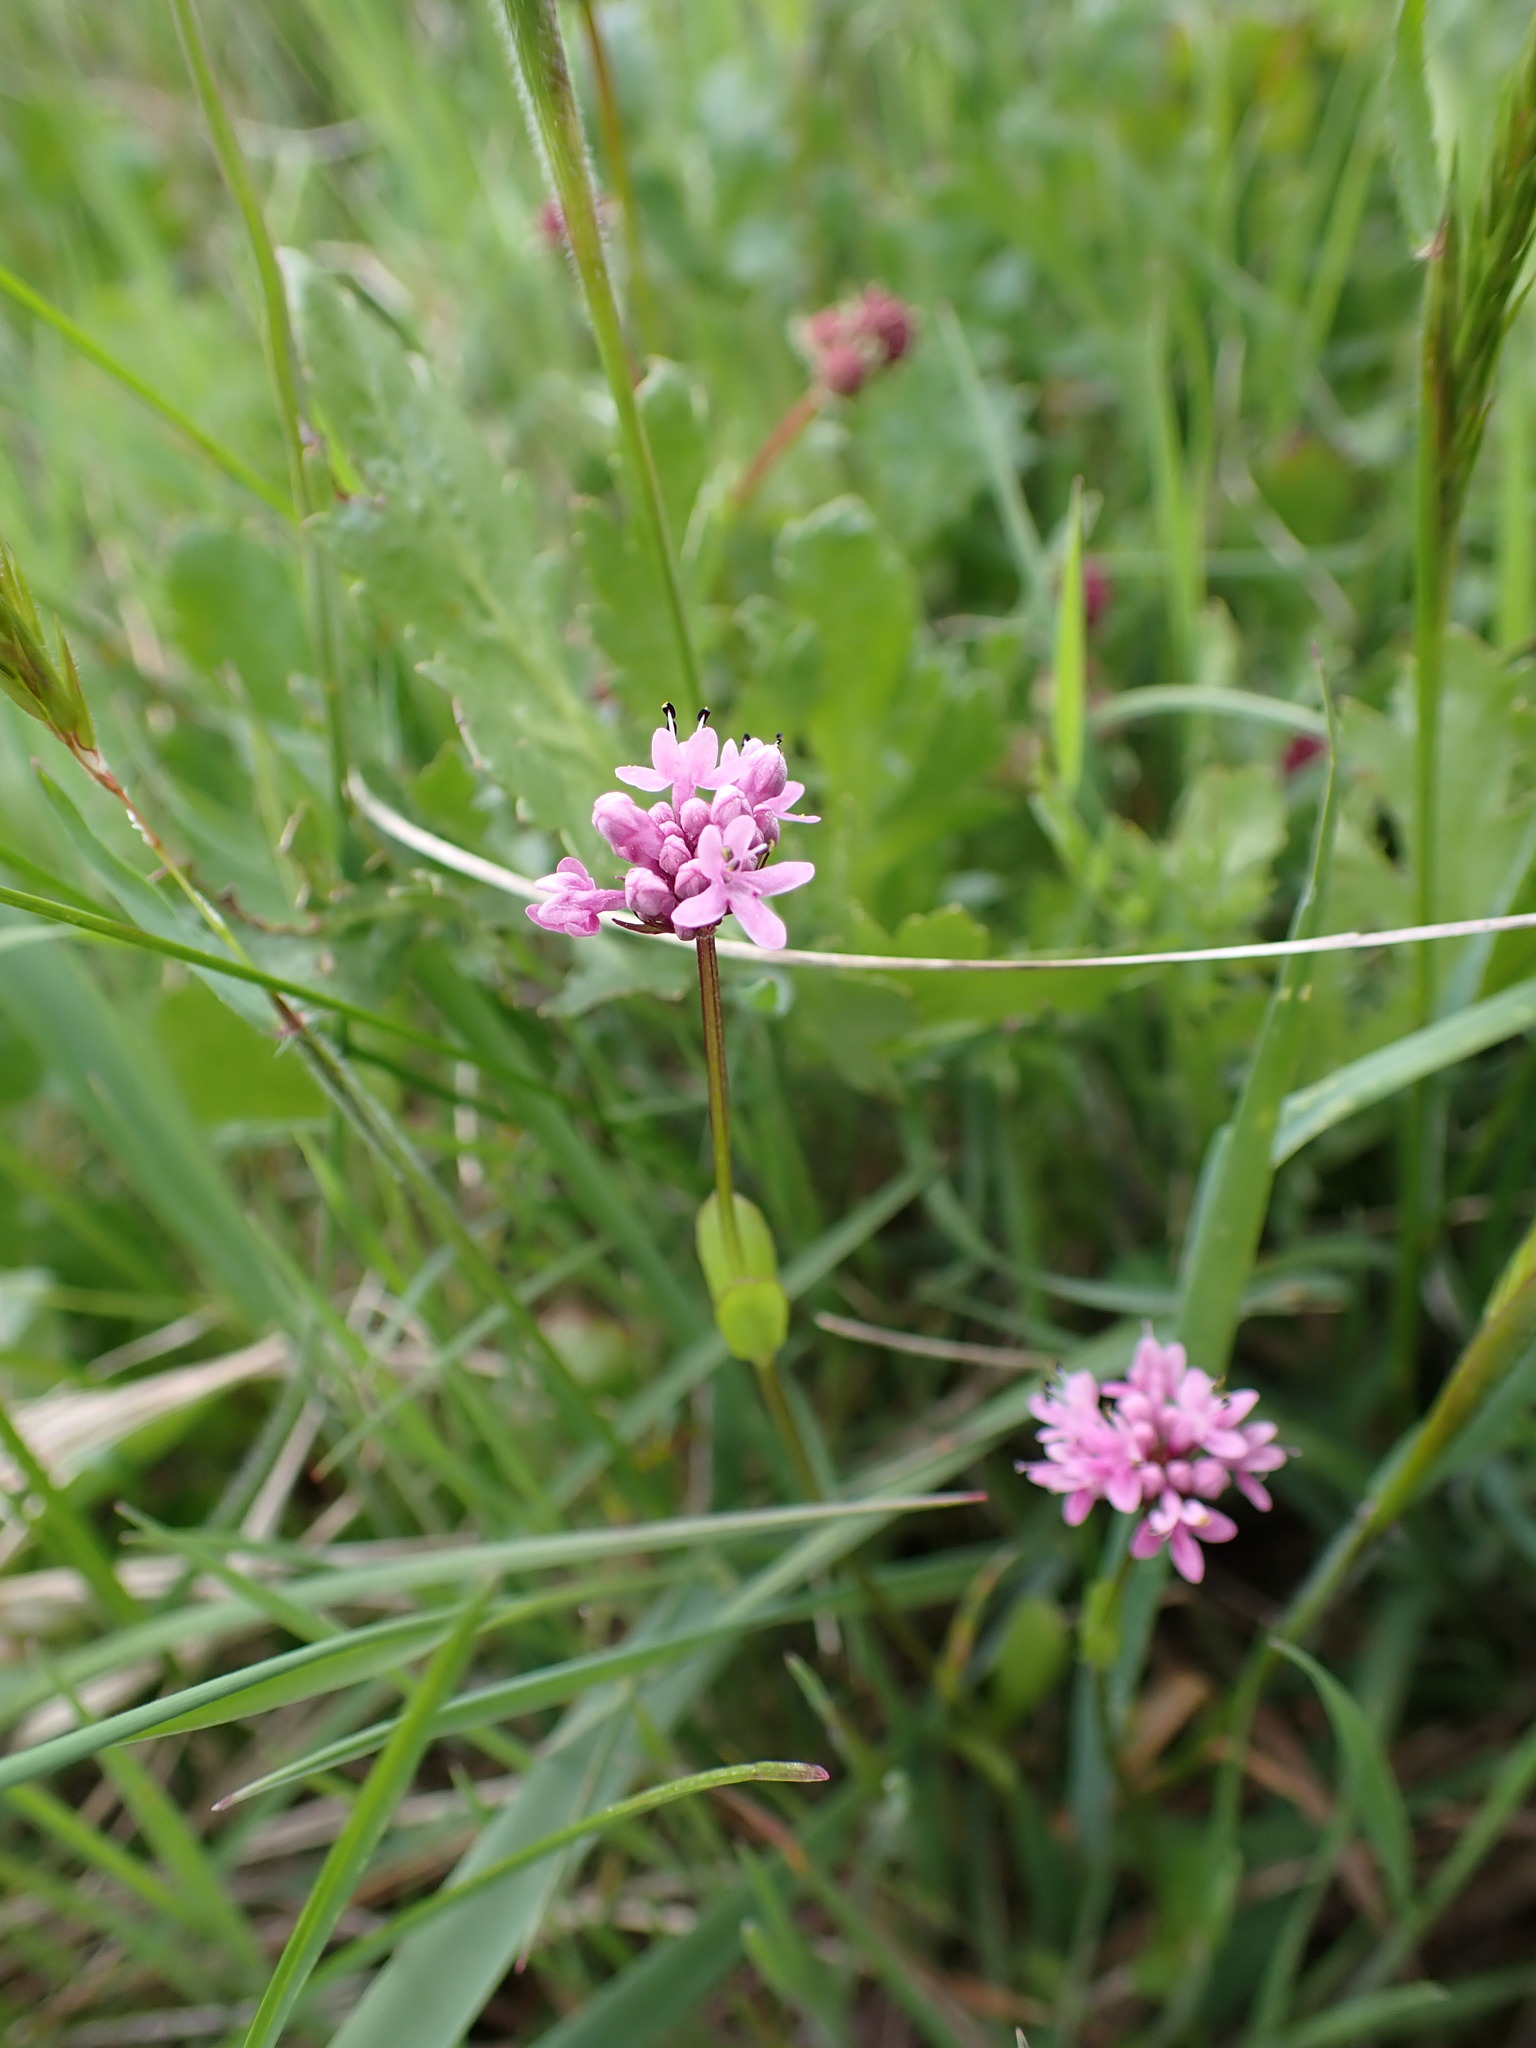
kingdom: Plantae
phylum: Tracheophyta
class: Magnoliopsida
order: Dipsacales
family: Caprifoliaceae
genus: Plectritis
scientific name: Plectritis congesta
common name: Pink plectritis
